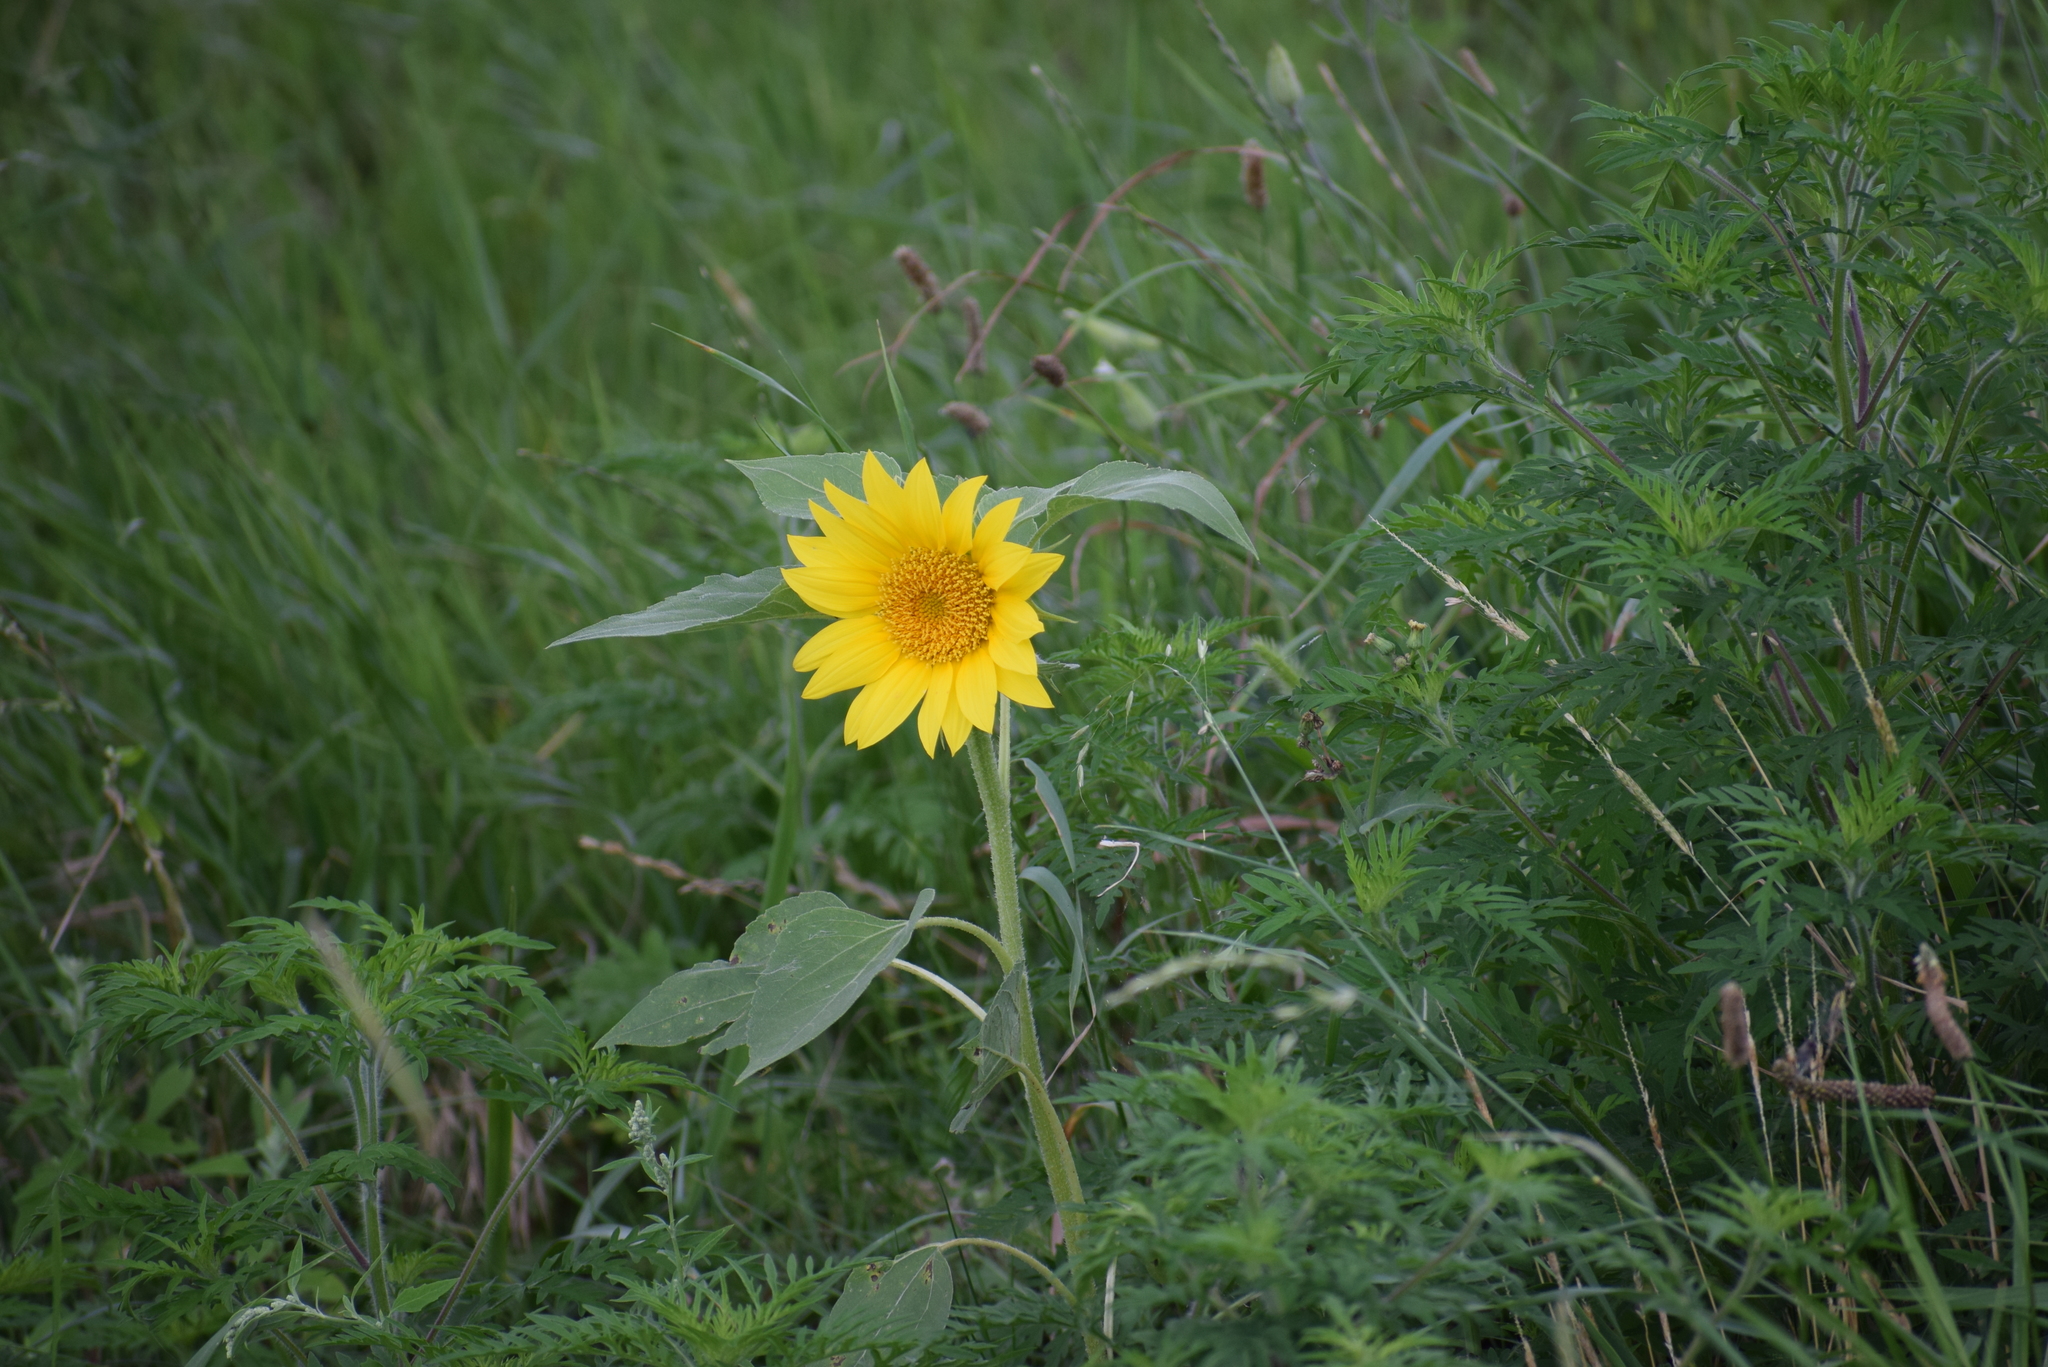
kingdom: Plantae
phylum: Tracheophyta
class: Magnoliopsida
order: Asterales
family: Asteraceae
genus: Helianthus
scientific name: Helianthus annuus
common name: Sunflower
